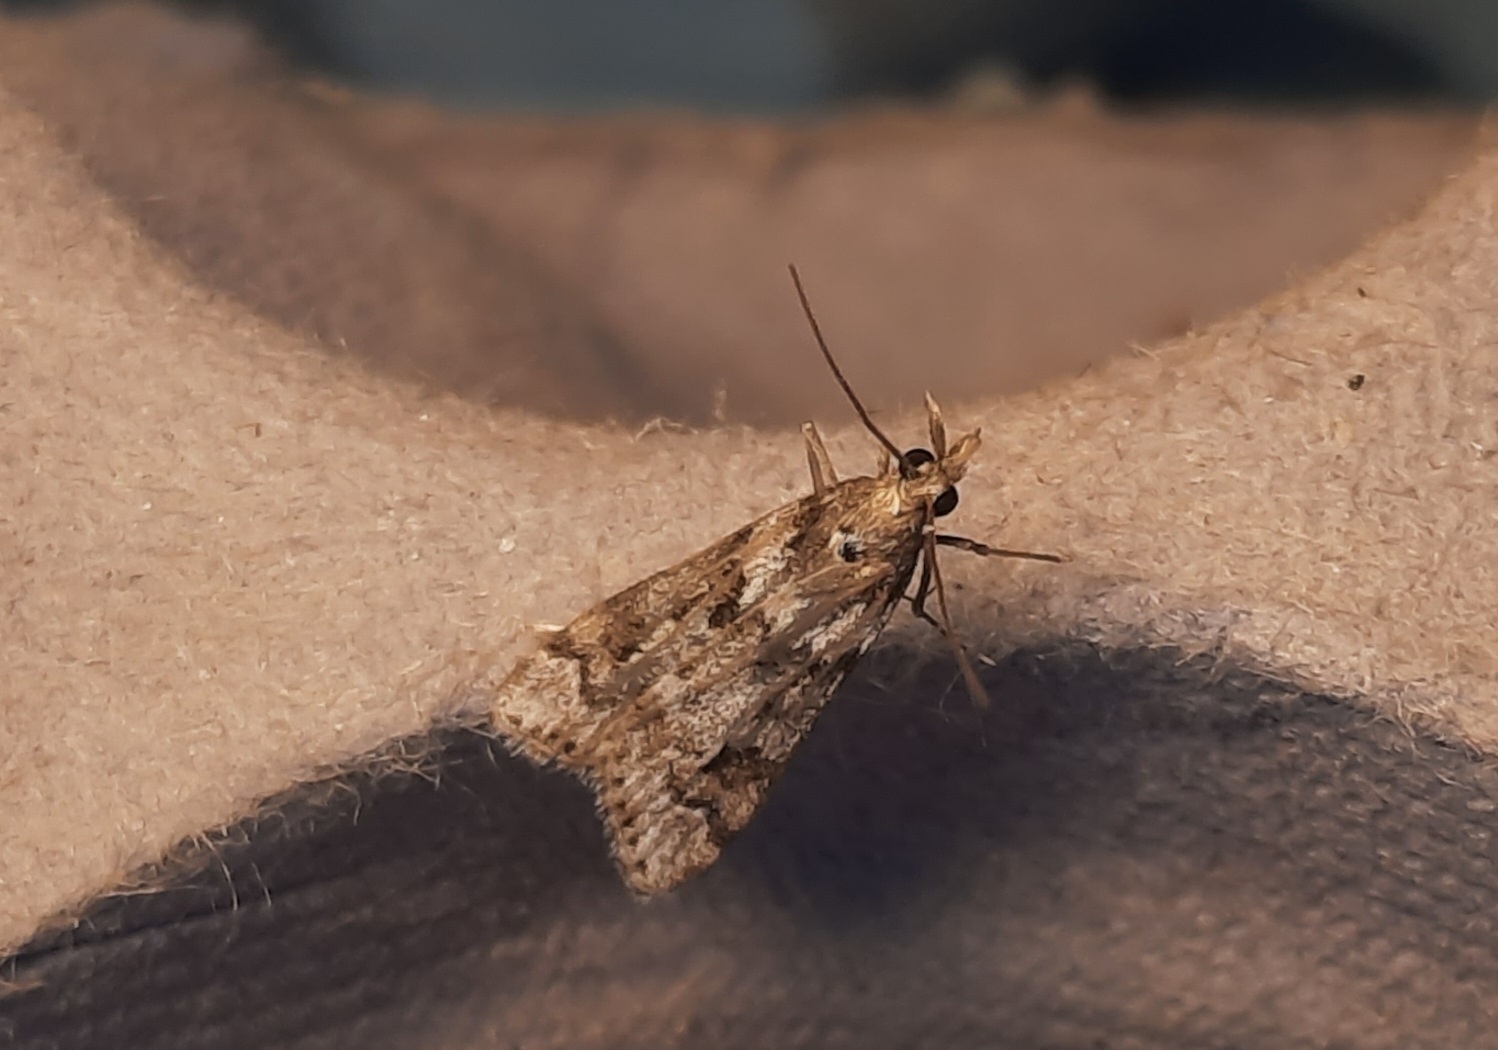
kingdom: Animalia
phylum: Arthropoda
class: Insecta
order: Lepidoptera
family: Crambidae
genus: Eudonia
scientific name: Eudonia angustea
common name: Narrow-winged grey
